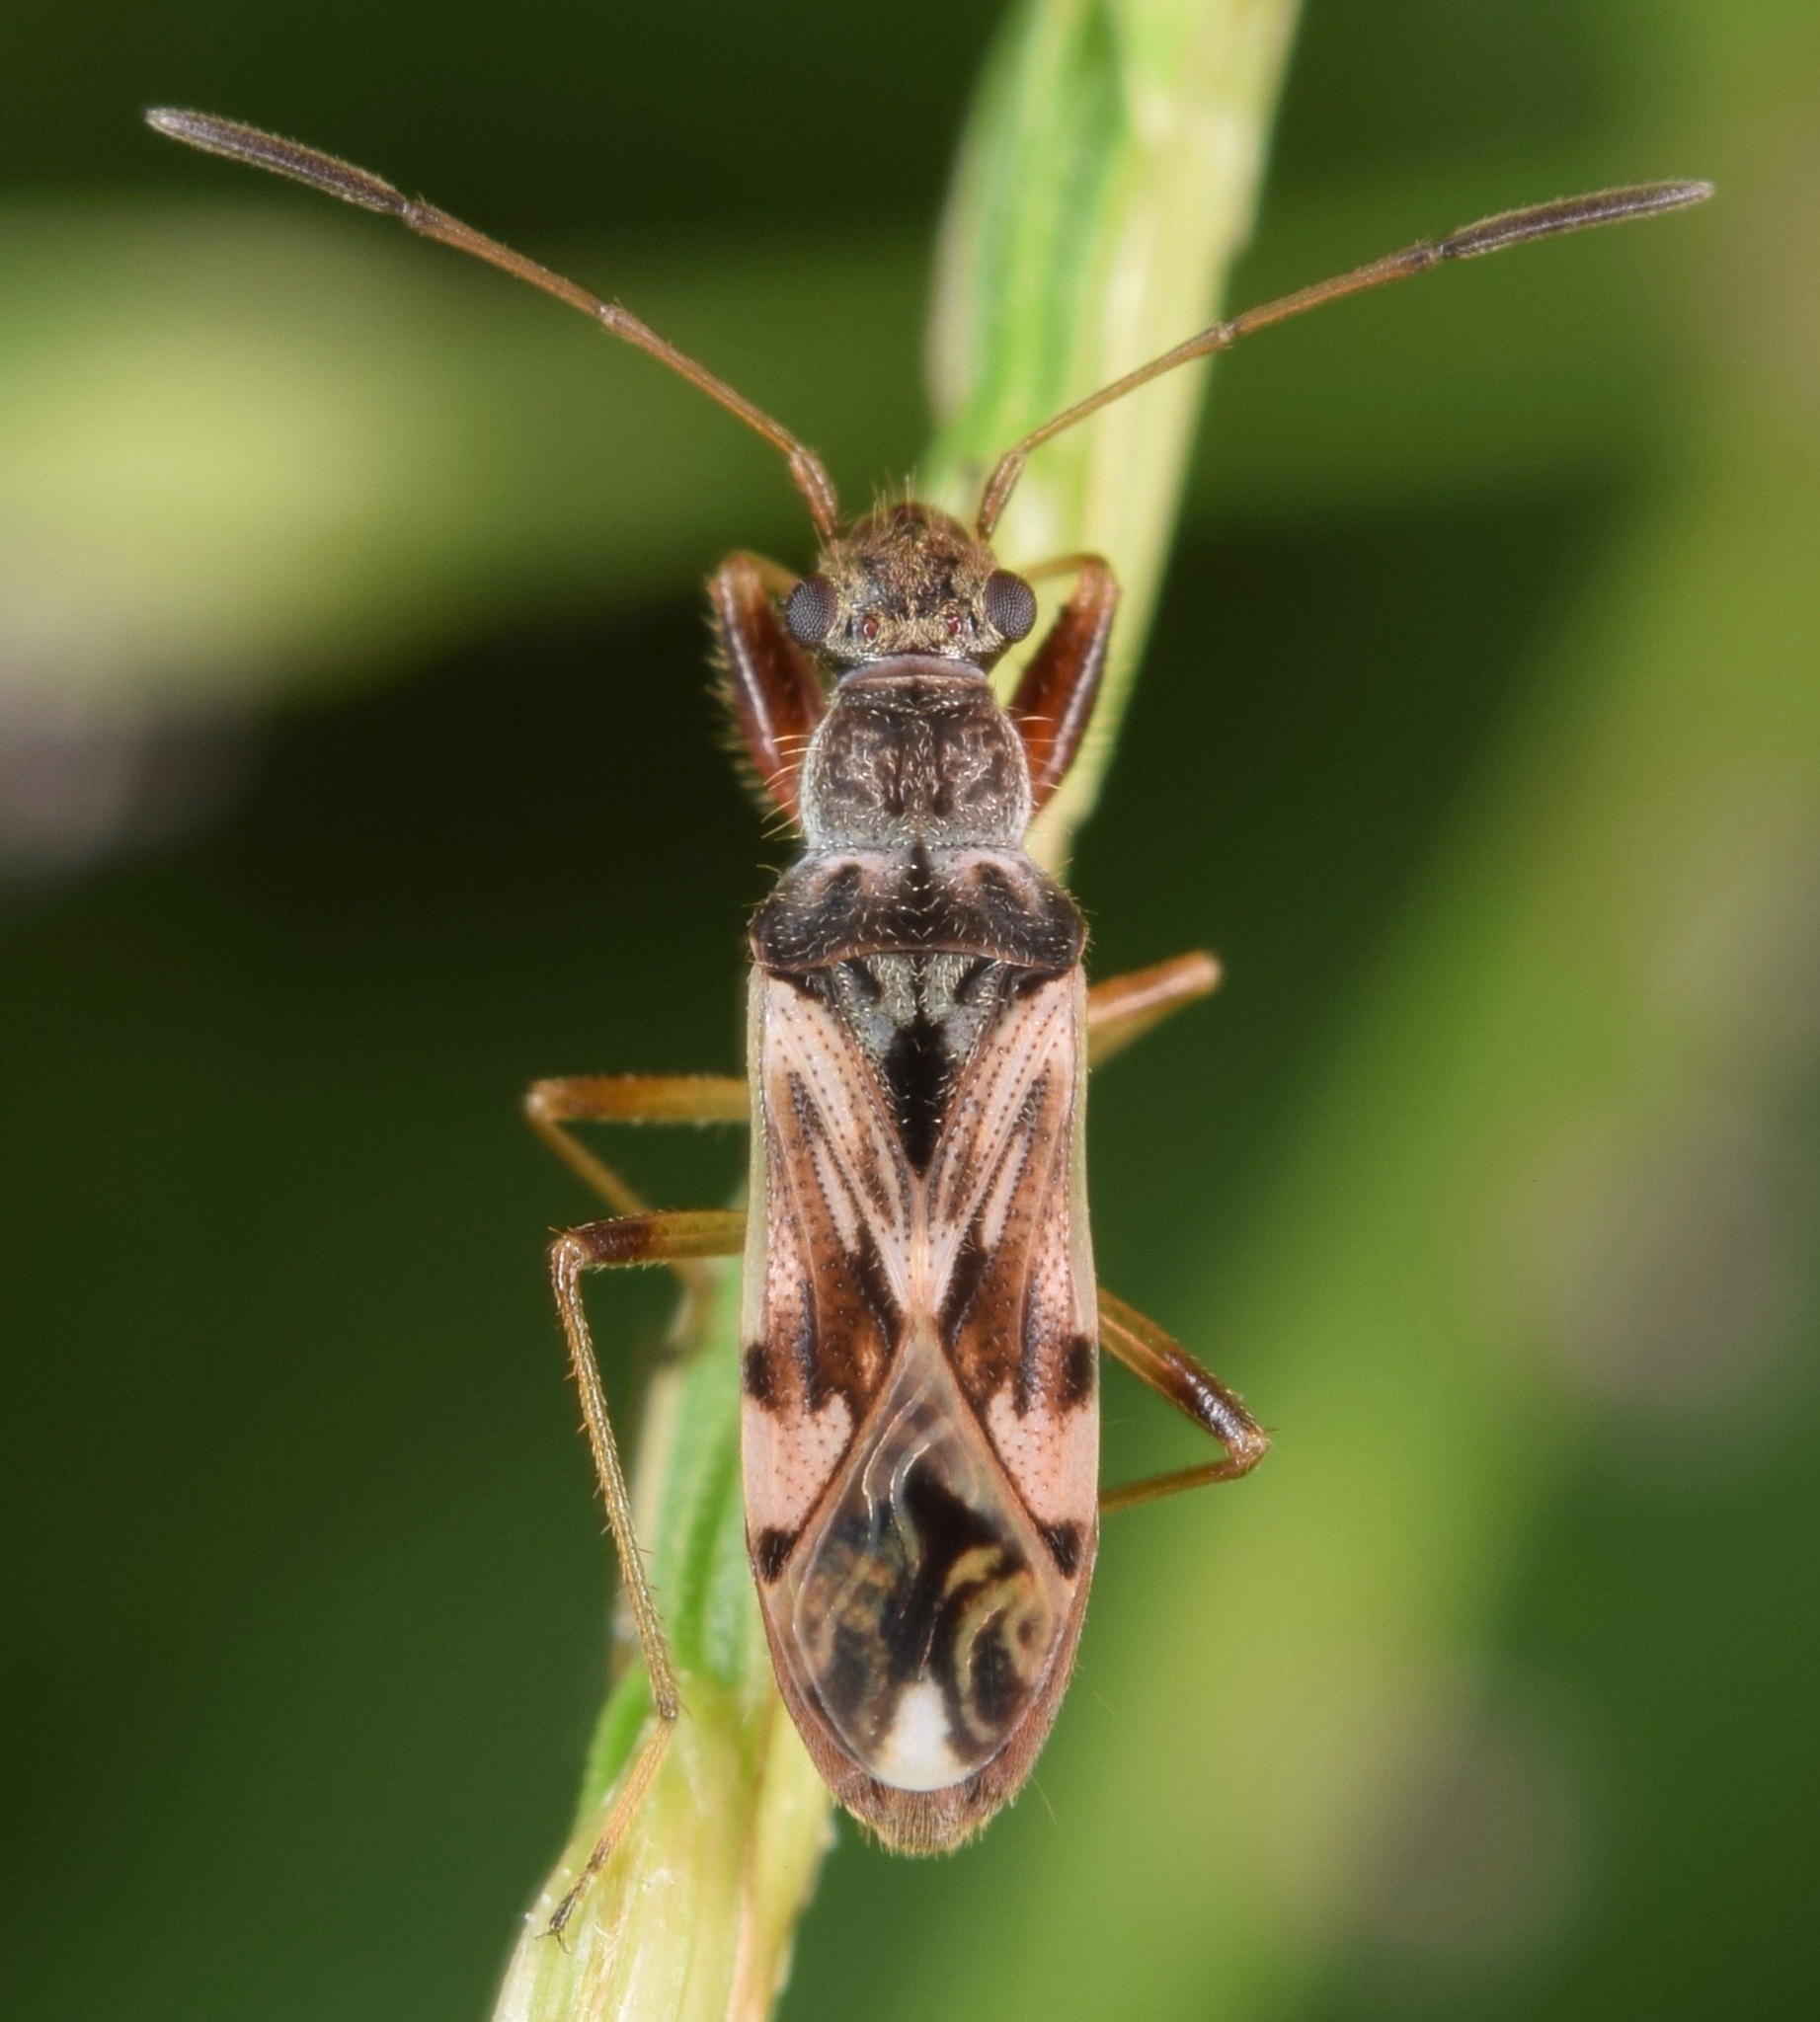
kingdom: Animalia
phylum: Arthropoda
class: Insecta
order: Hemiptera
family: Rhyparochromidae
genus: Neopamera
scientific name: Neopamera bilobata
